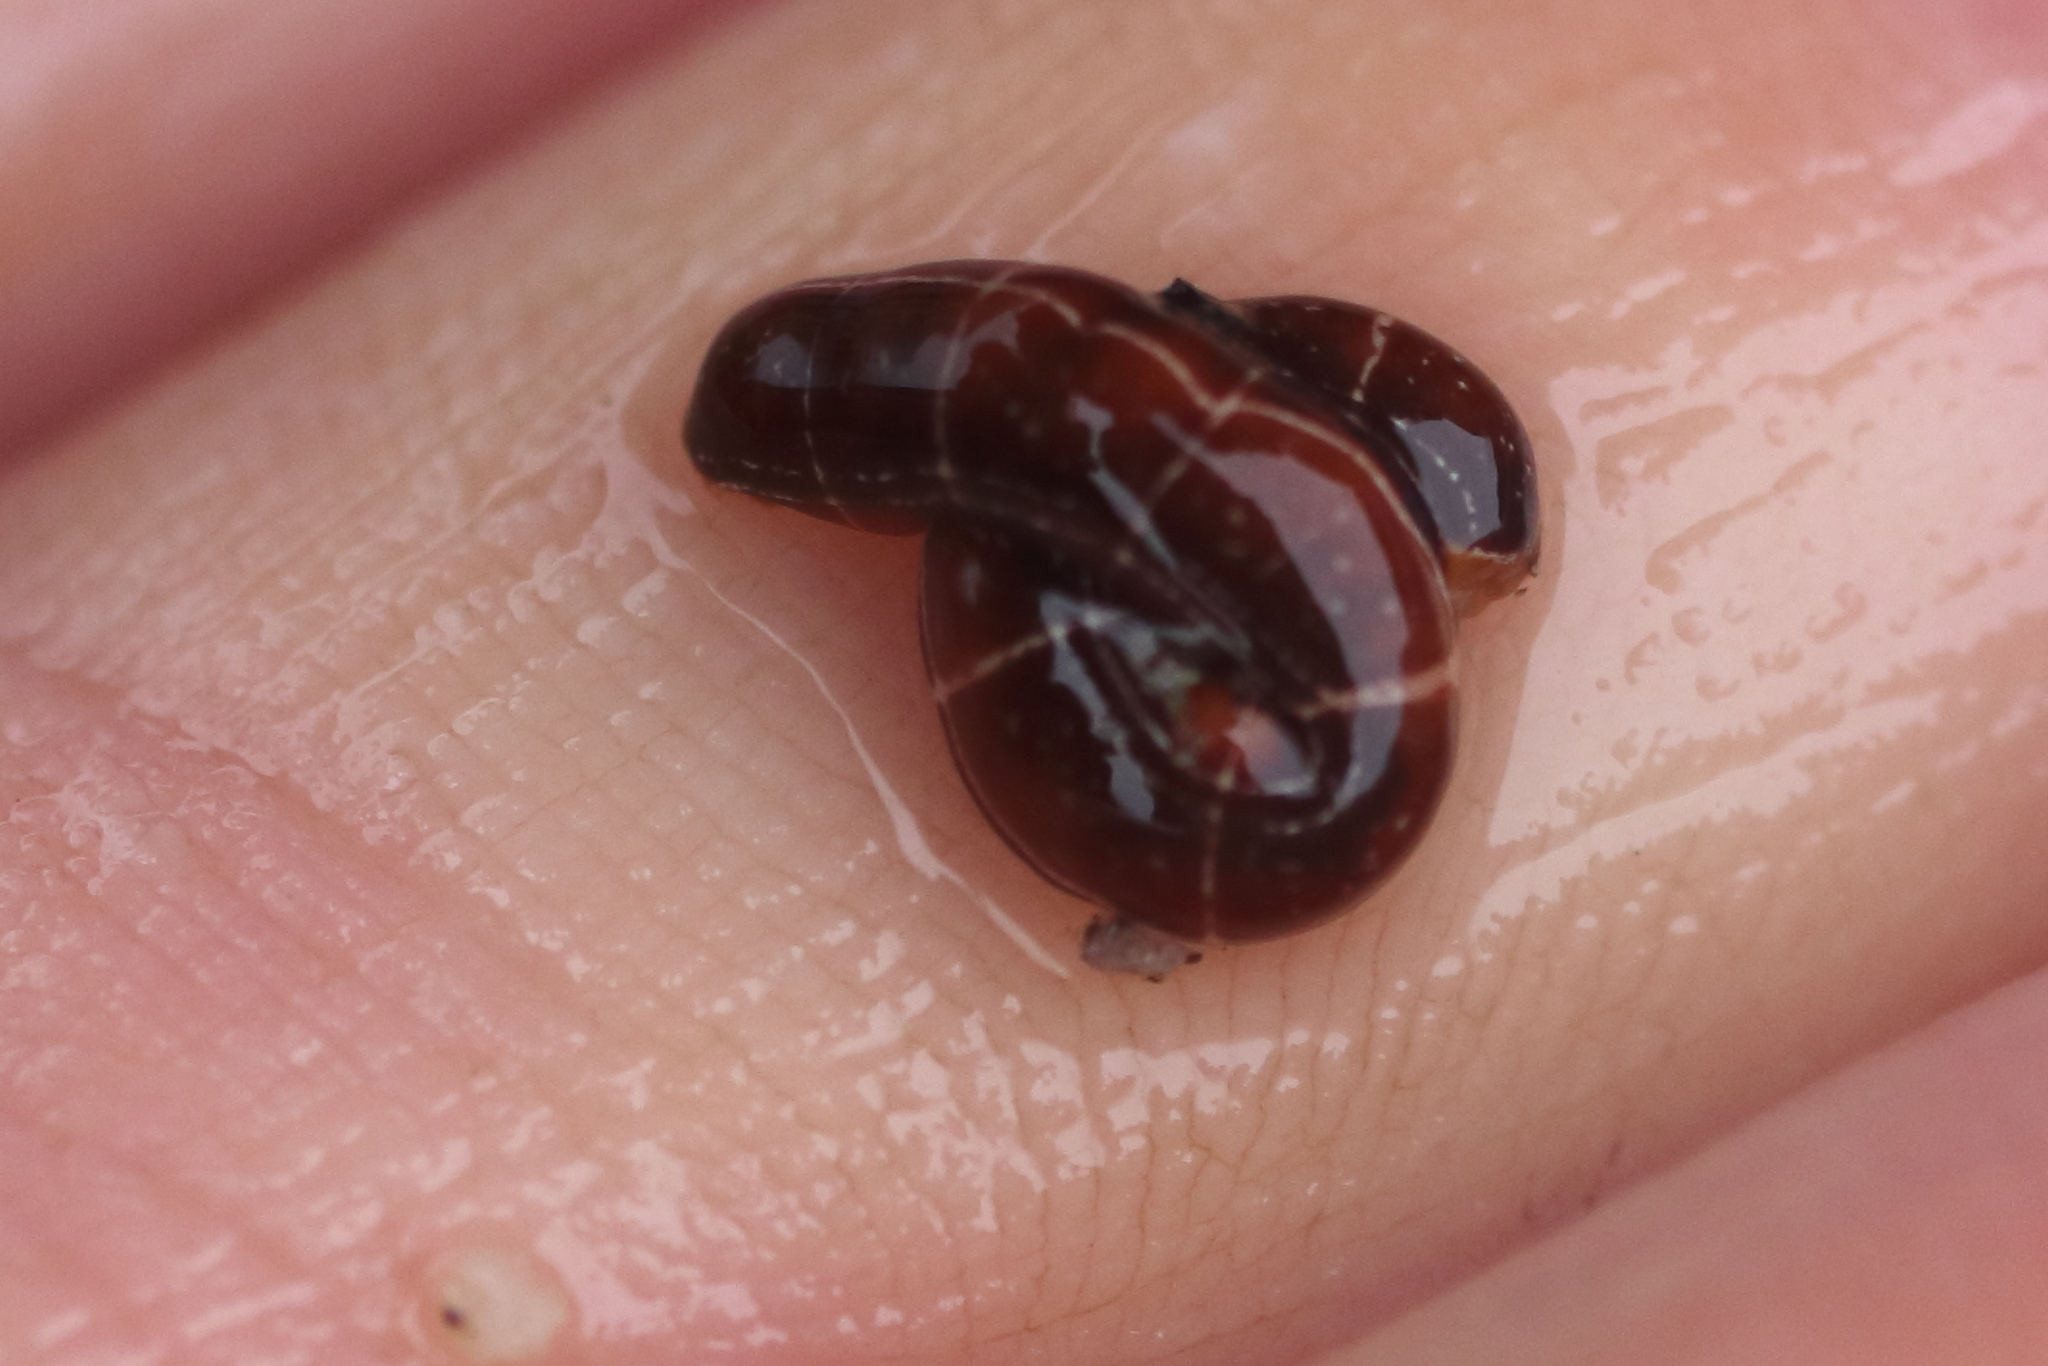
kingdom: Animalia
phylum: Nemertea
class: Palaeonemertea
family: Tubulanidae
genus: Tubulanus
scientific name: Tubulanus sexlineatus
